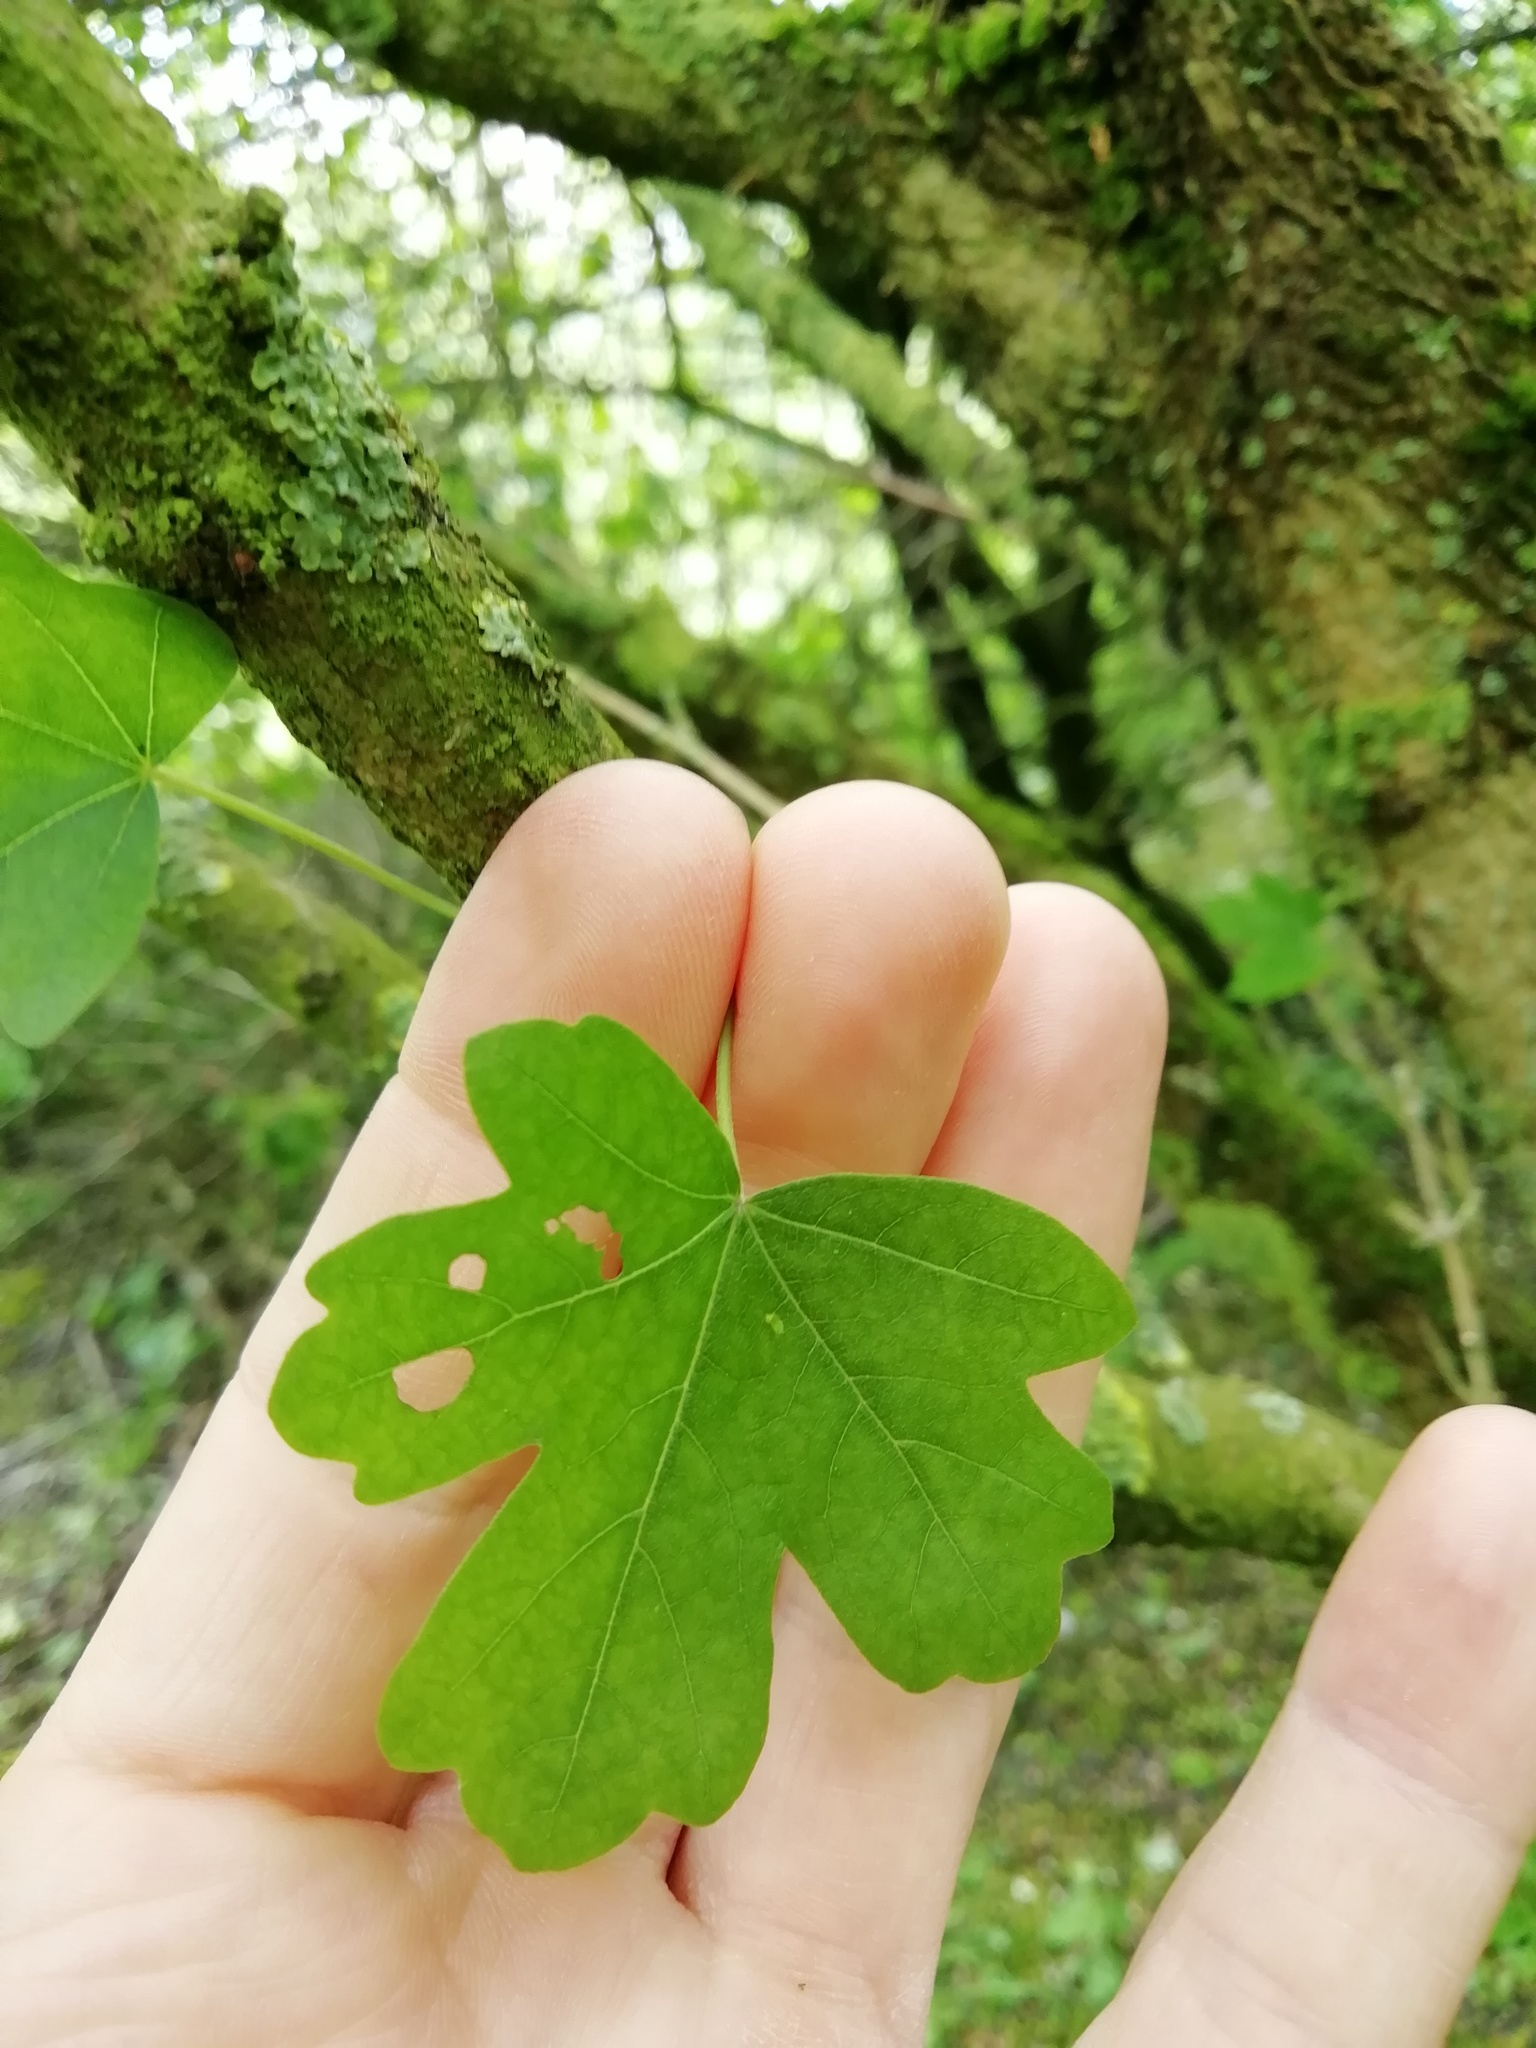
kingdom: Plantae
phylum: Tracheophyta
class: Magnoliopsida
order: Sapindales
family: Sapindaceae
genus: Acer
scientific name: Acer campestre
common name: Field maple
